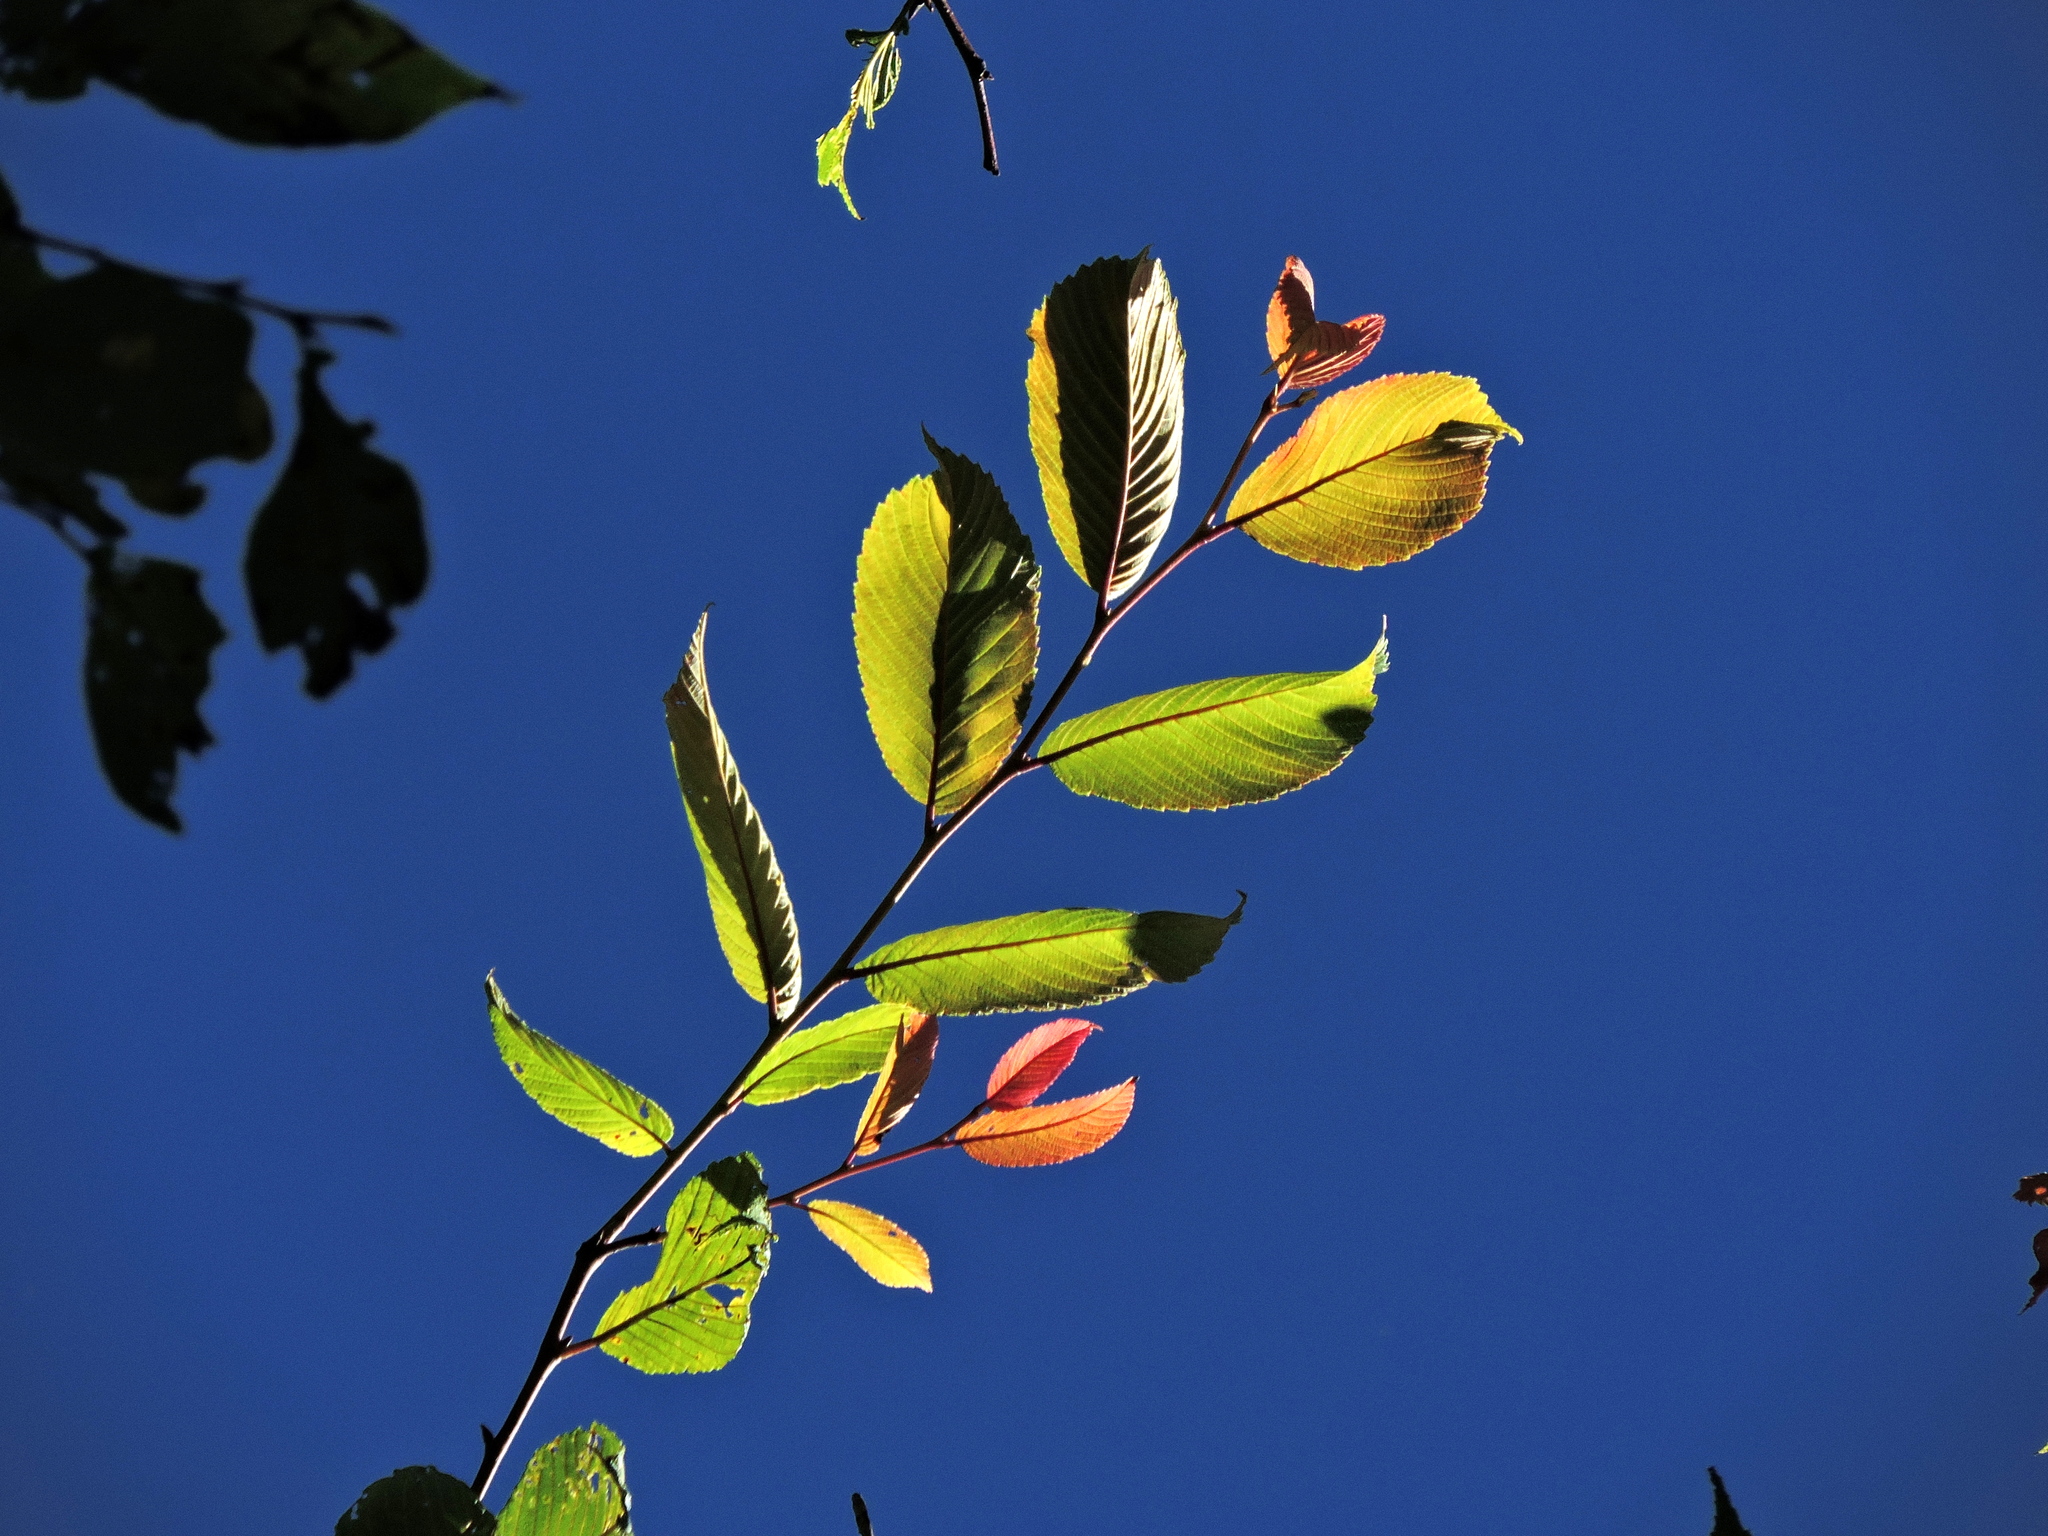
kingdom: Plantae
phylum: Tracheophyta
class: Magnoliopsida
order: Rosales
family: Ulmaceae
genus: Ulmus
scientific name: Ulmus uyematsui
